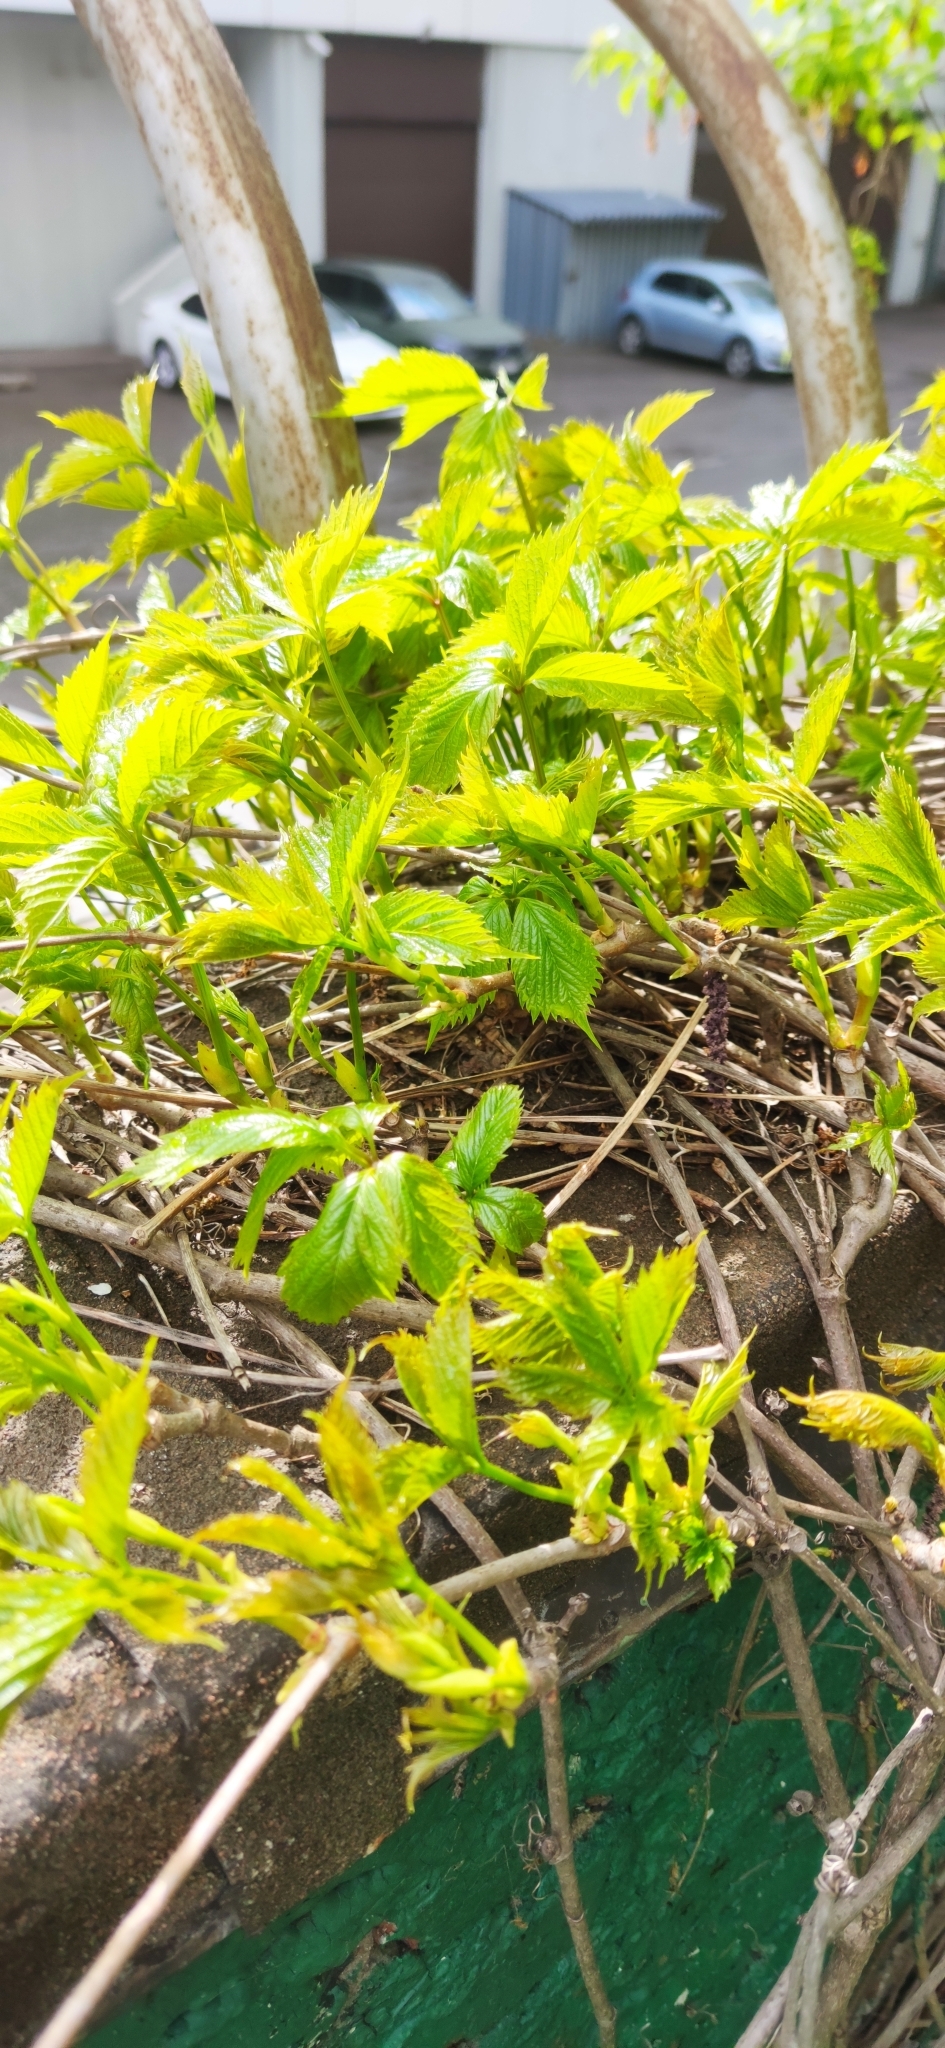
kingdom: Plantae
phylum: Tracheophyta
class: Magnoliopsida
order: Vitales
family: Vitaceae
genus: Parthenocissus
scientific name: Parthenocissus inserta
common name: False virginia-creeper
